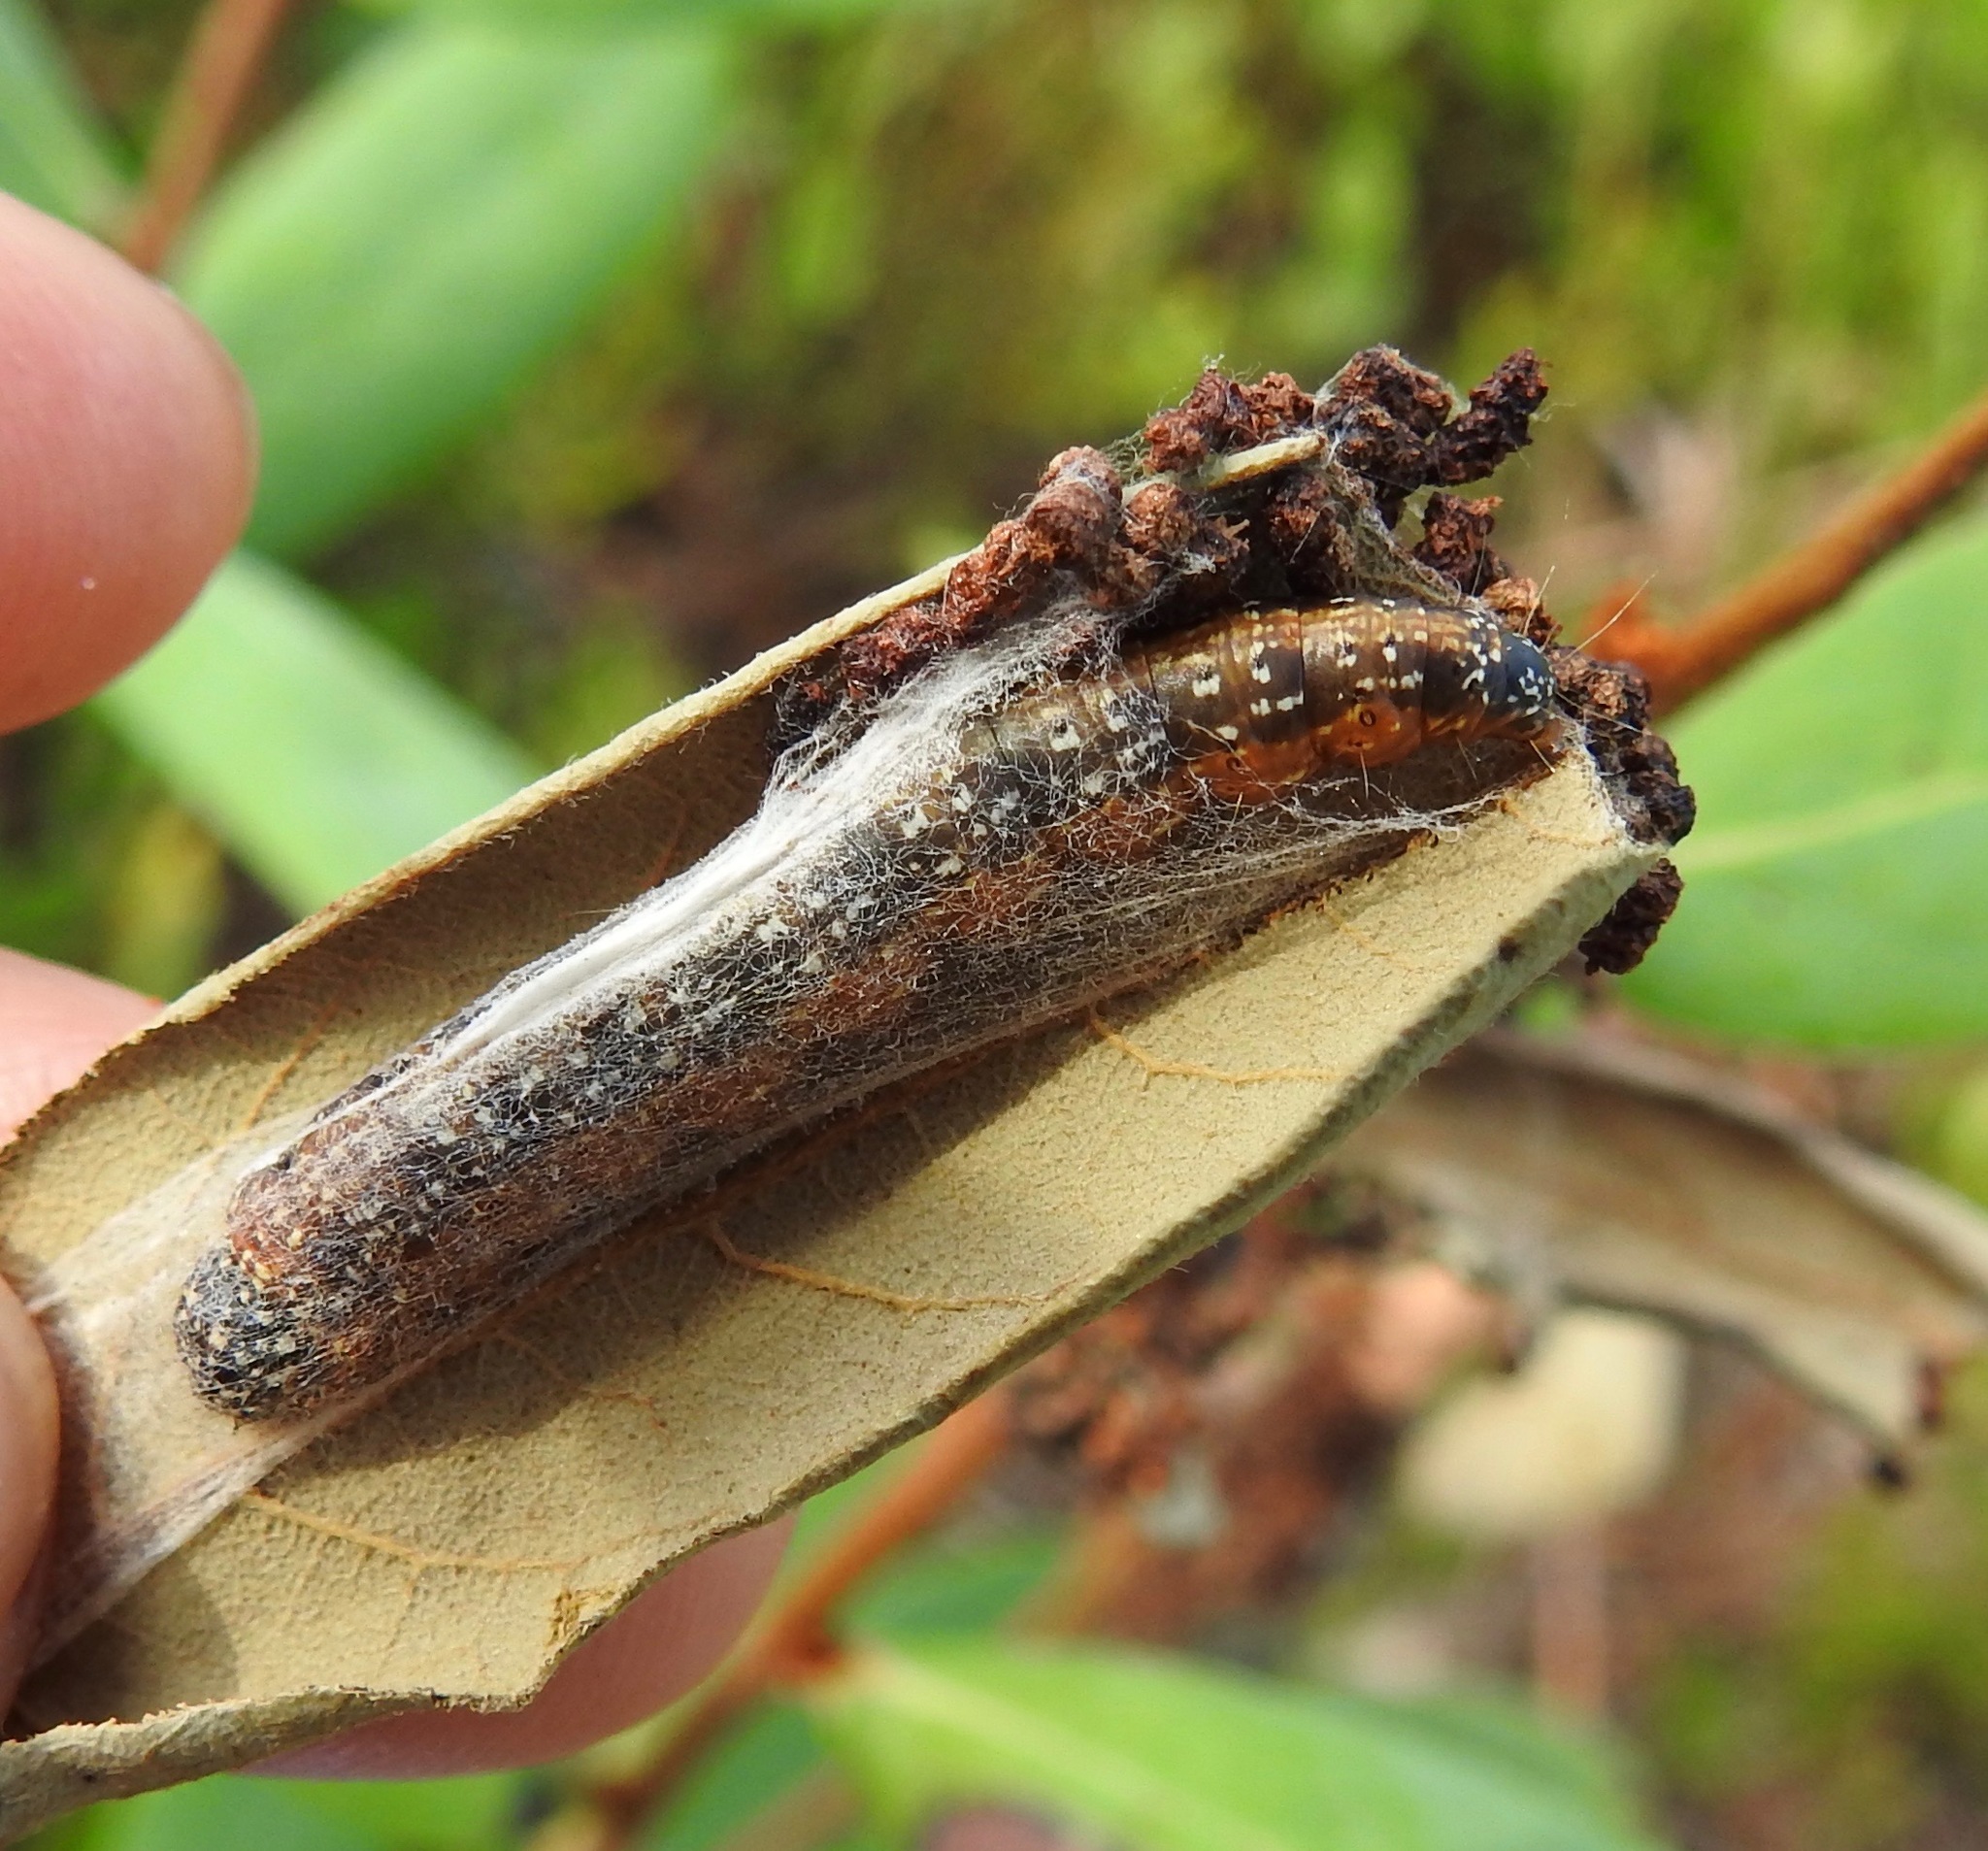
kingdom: Animalia
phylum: Arthropoda
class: Insecta
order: Lepidoptera
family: Pyralidae
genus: Omphalocera
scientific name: Omphalocera munroei
